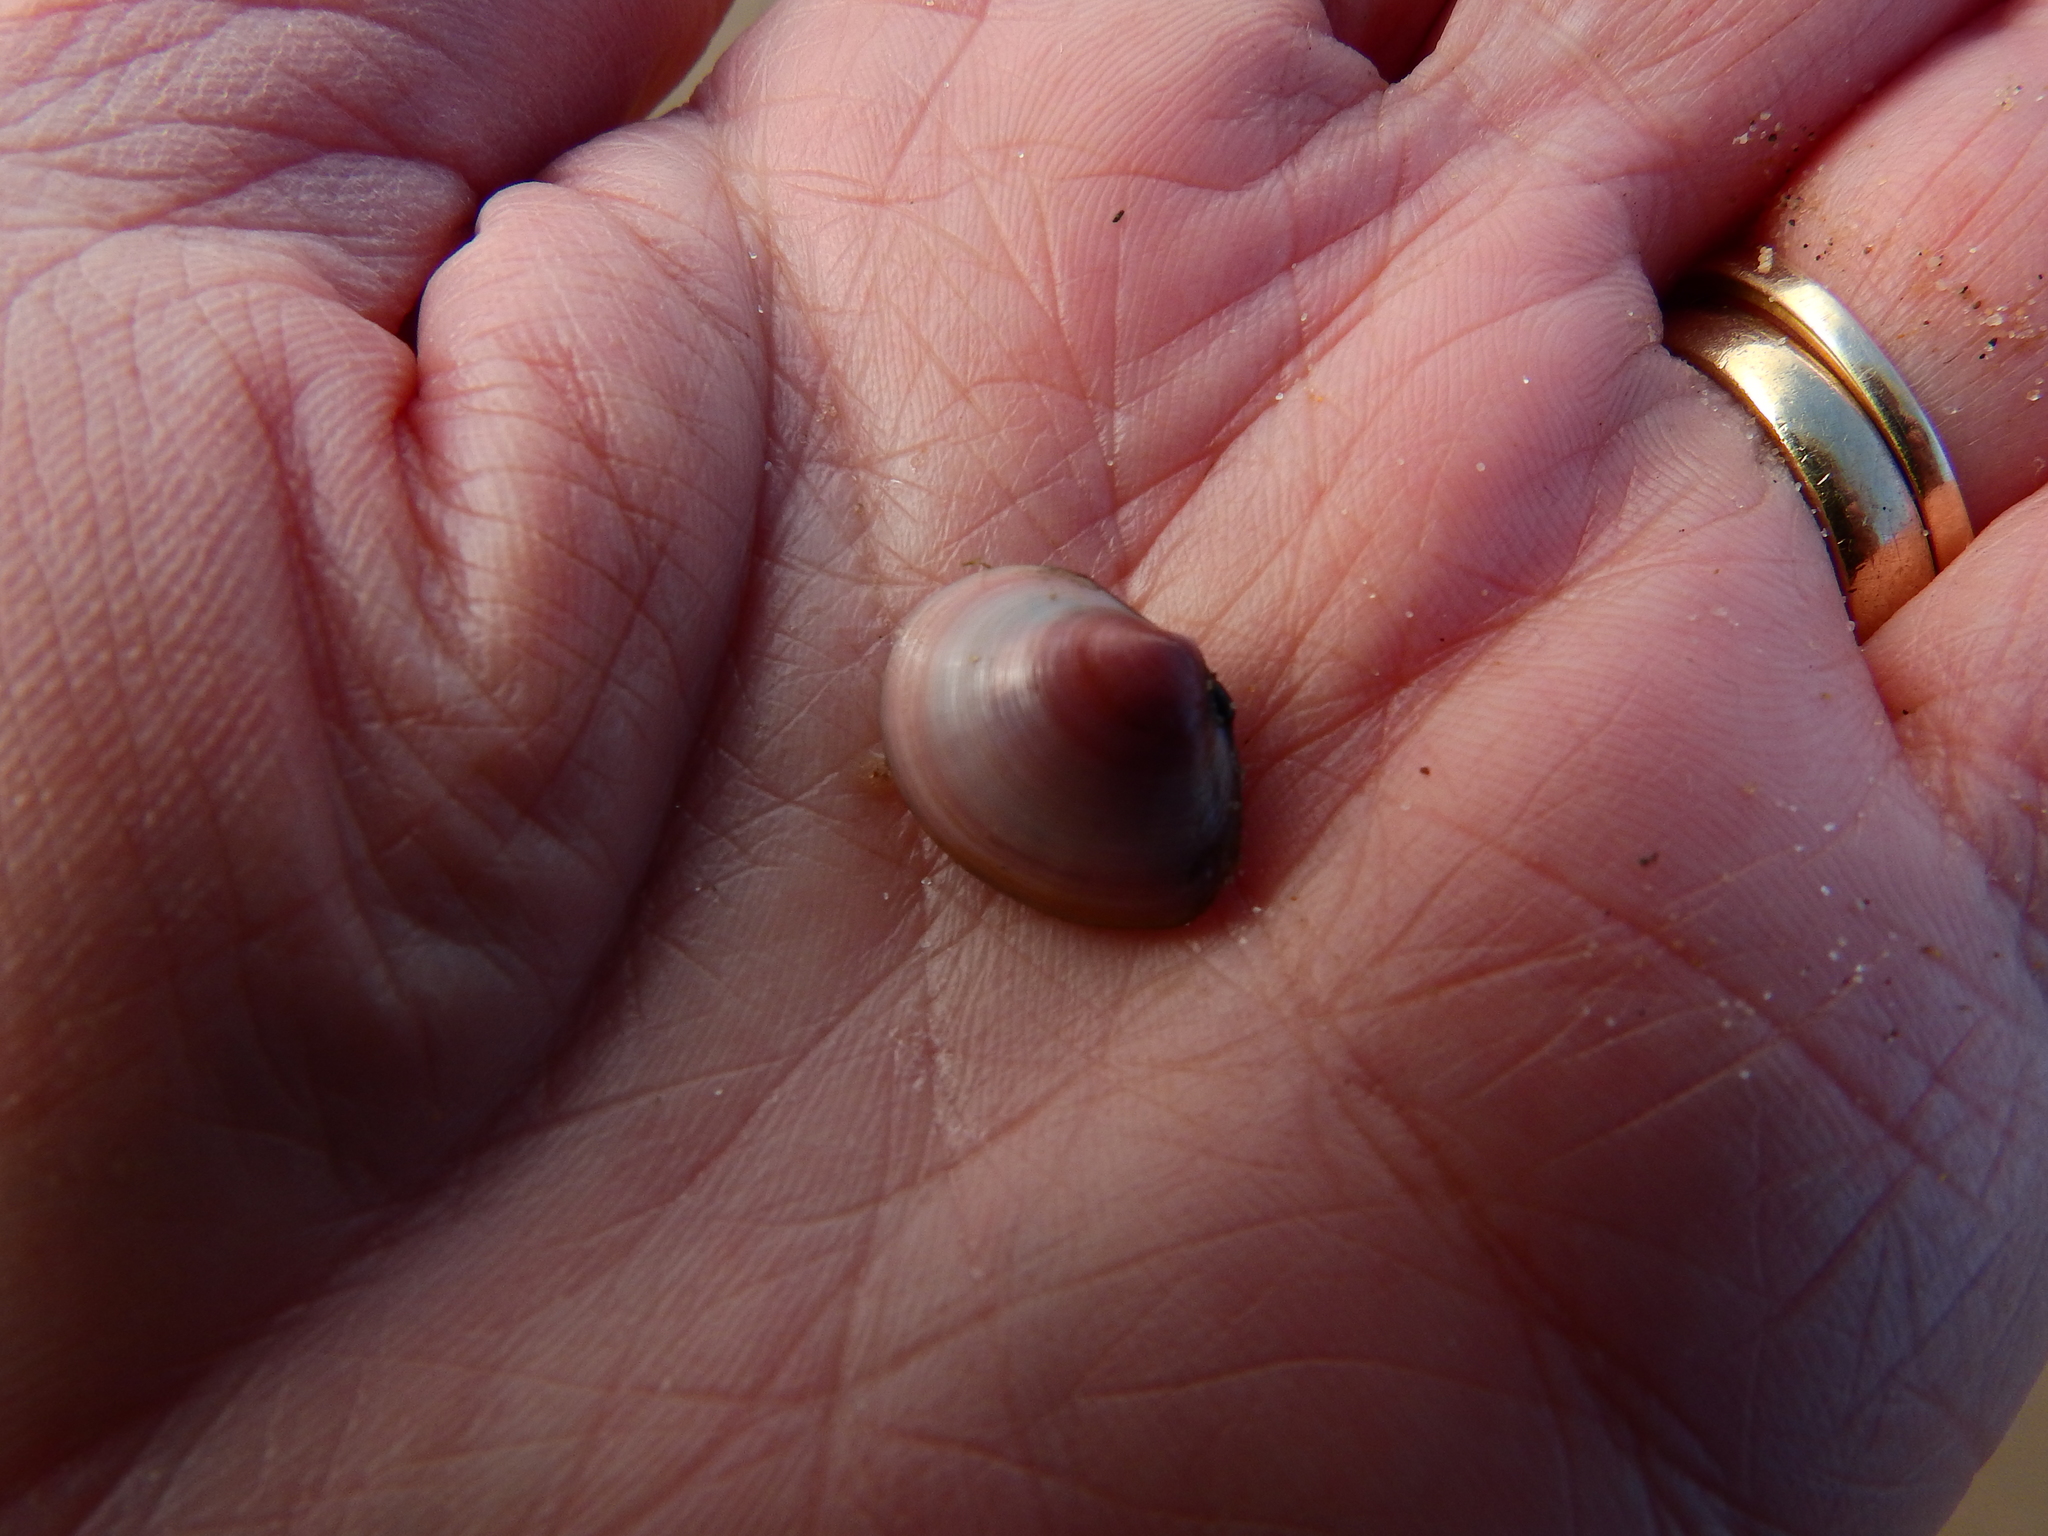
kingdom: Animalia
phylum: Mollusca
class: Bivalvia
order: Cardiida
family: Tellinidae
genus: Macoma
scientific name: Macoma balthica
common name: Baltic tellin
